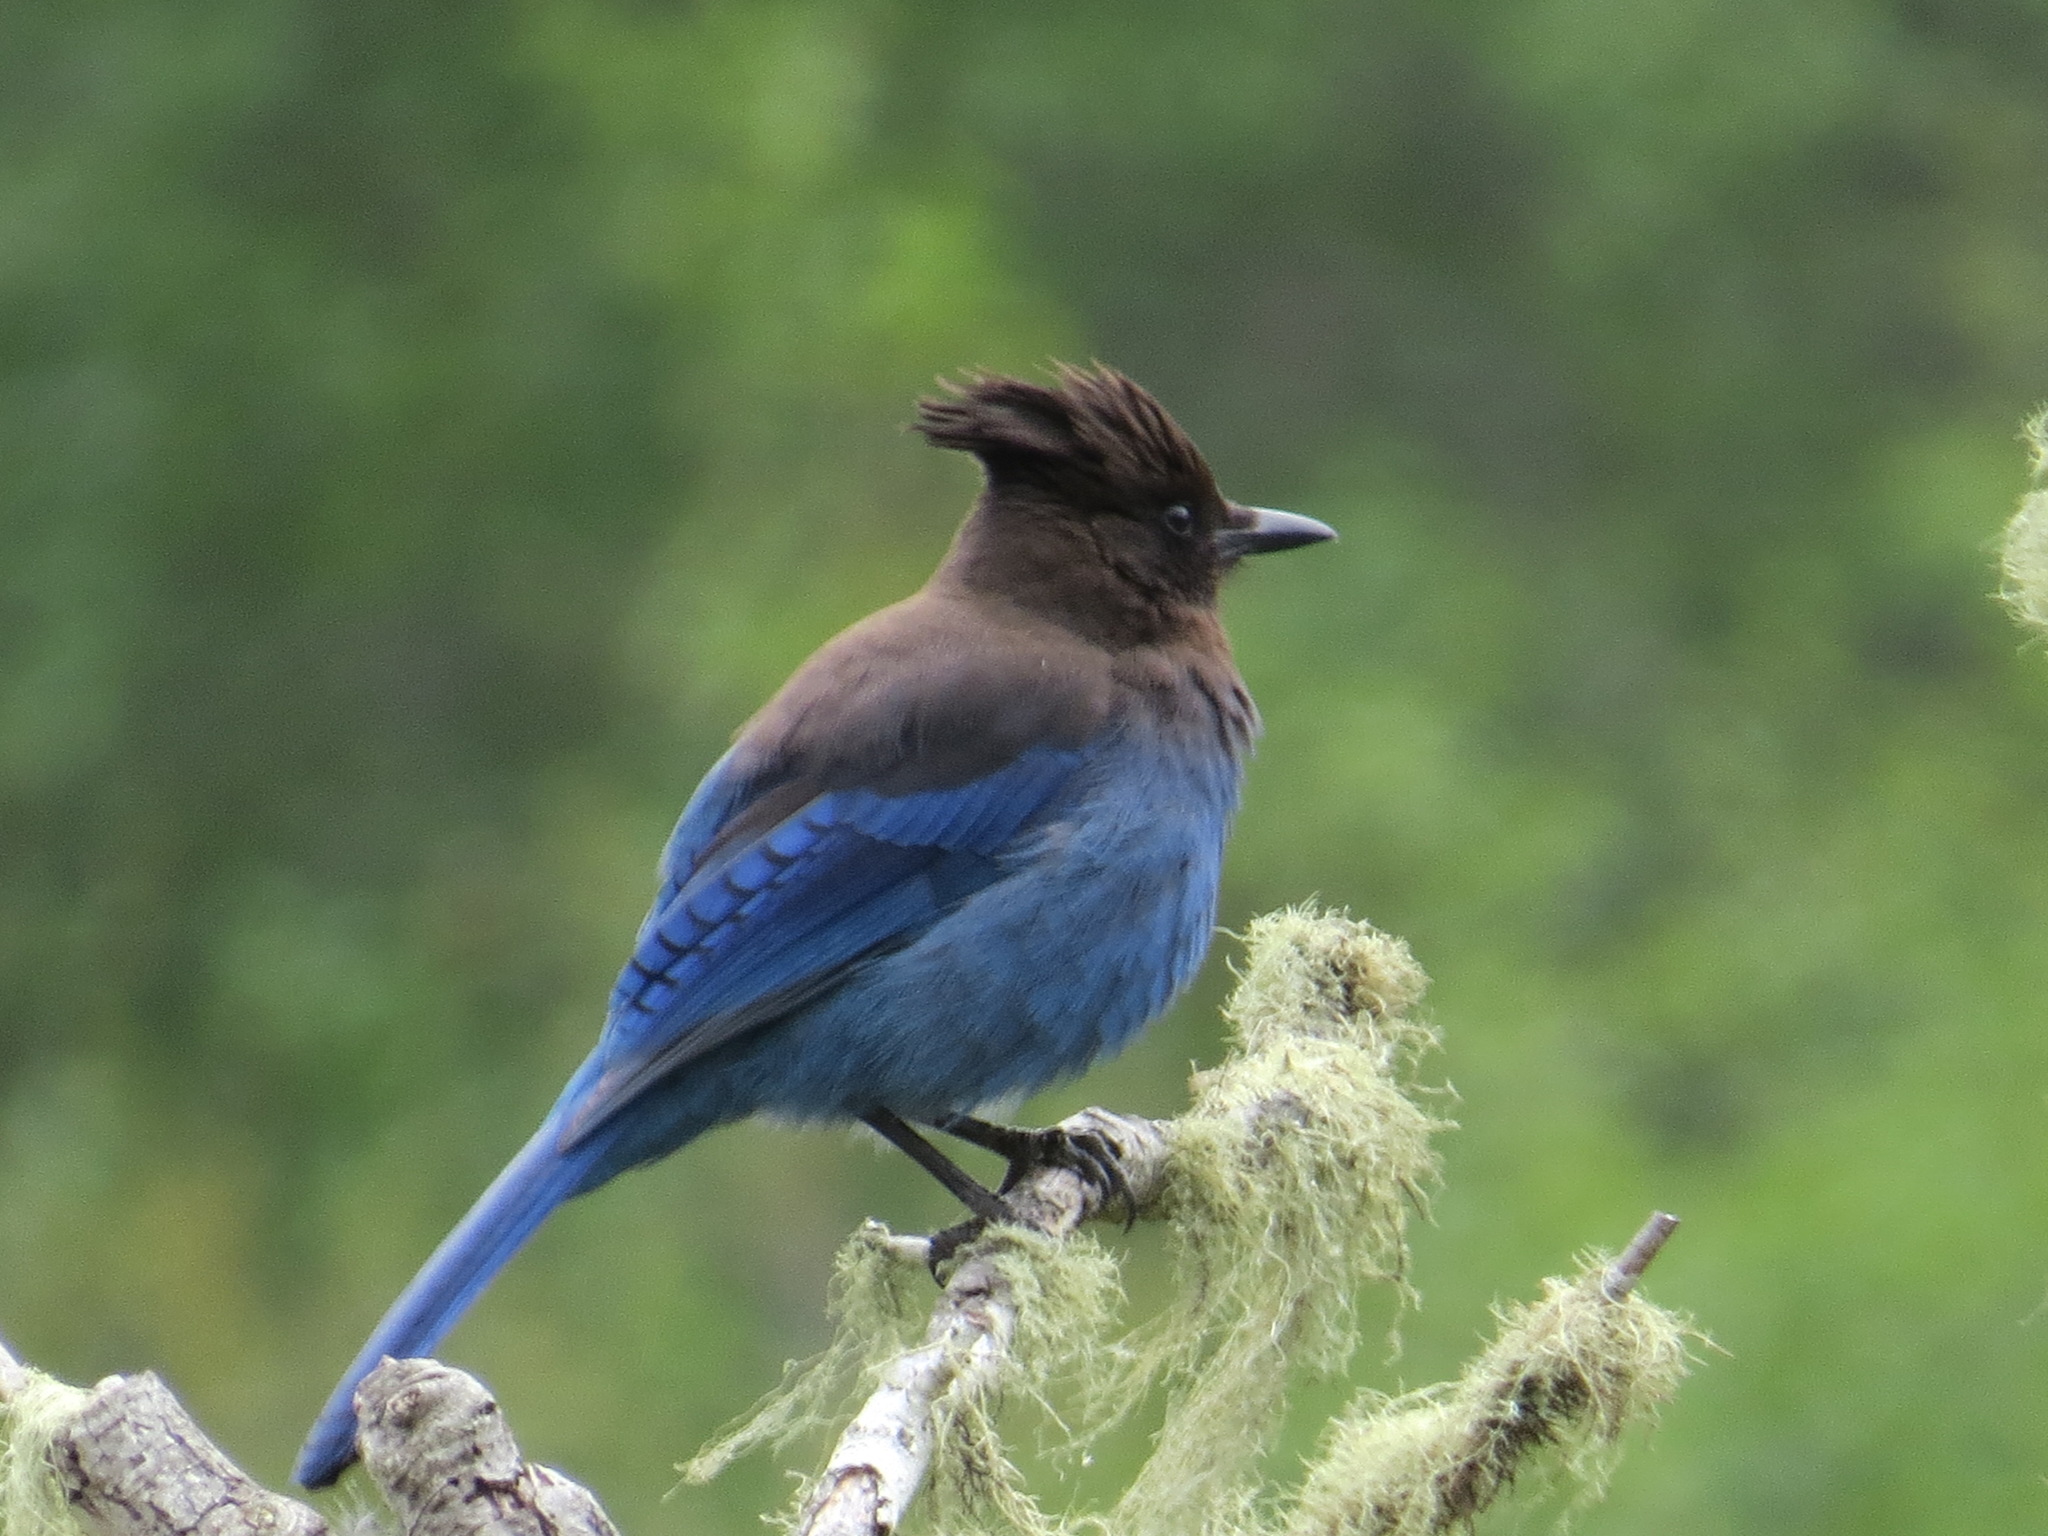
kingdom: Animalia
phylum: Chordata
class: Aves
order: Passeriformes
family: Corvidae
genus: Cyanocitta
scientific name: Cyanocitta stelleri
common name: Steller's jay
